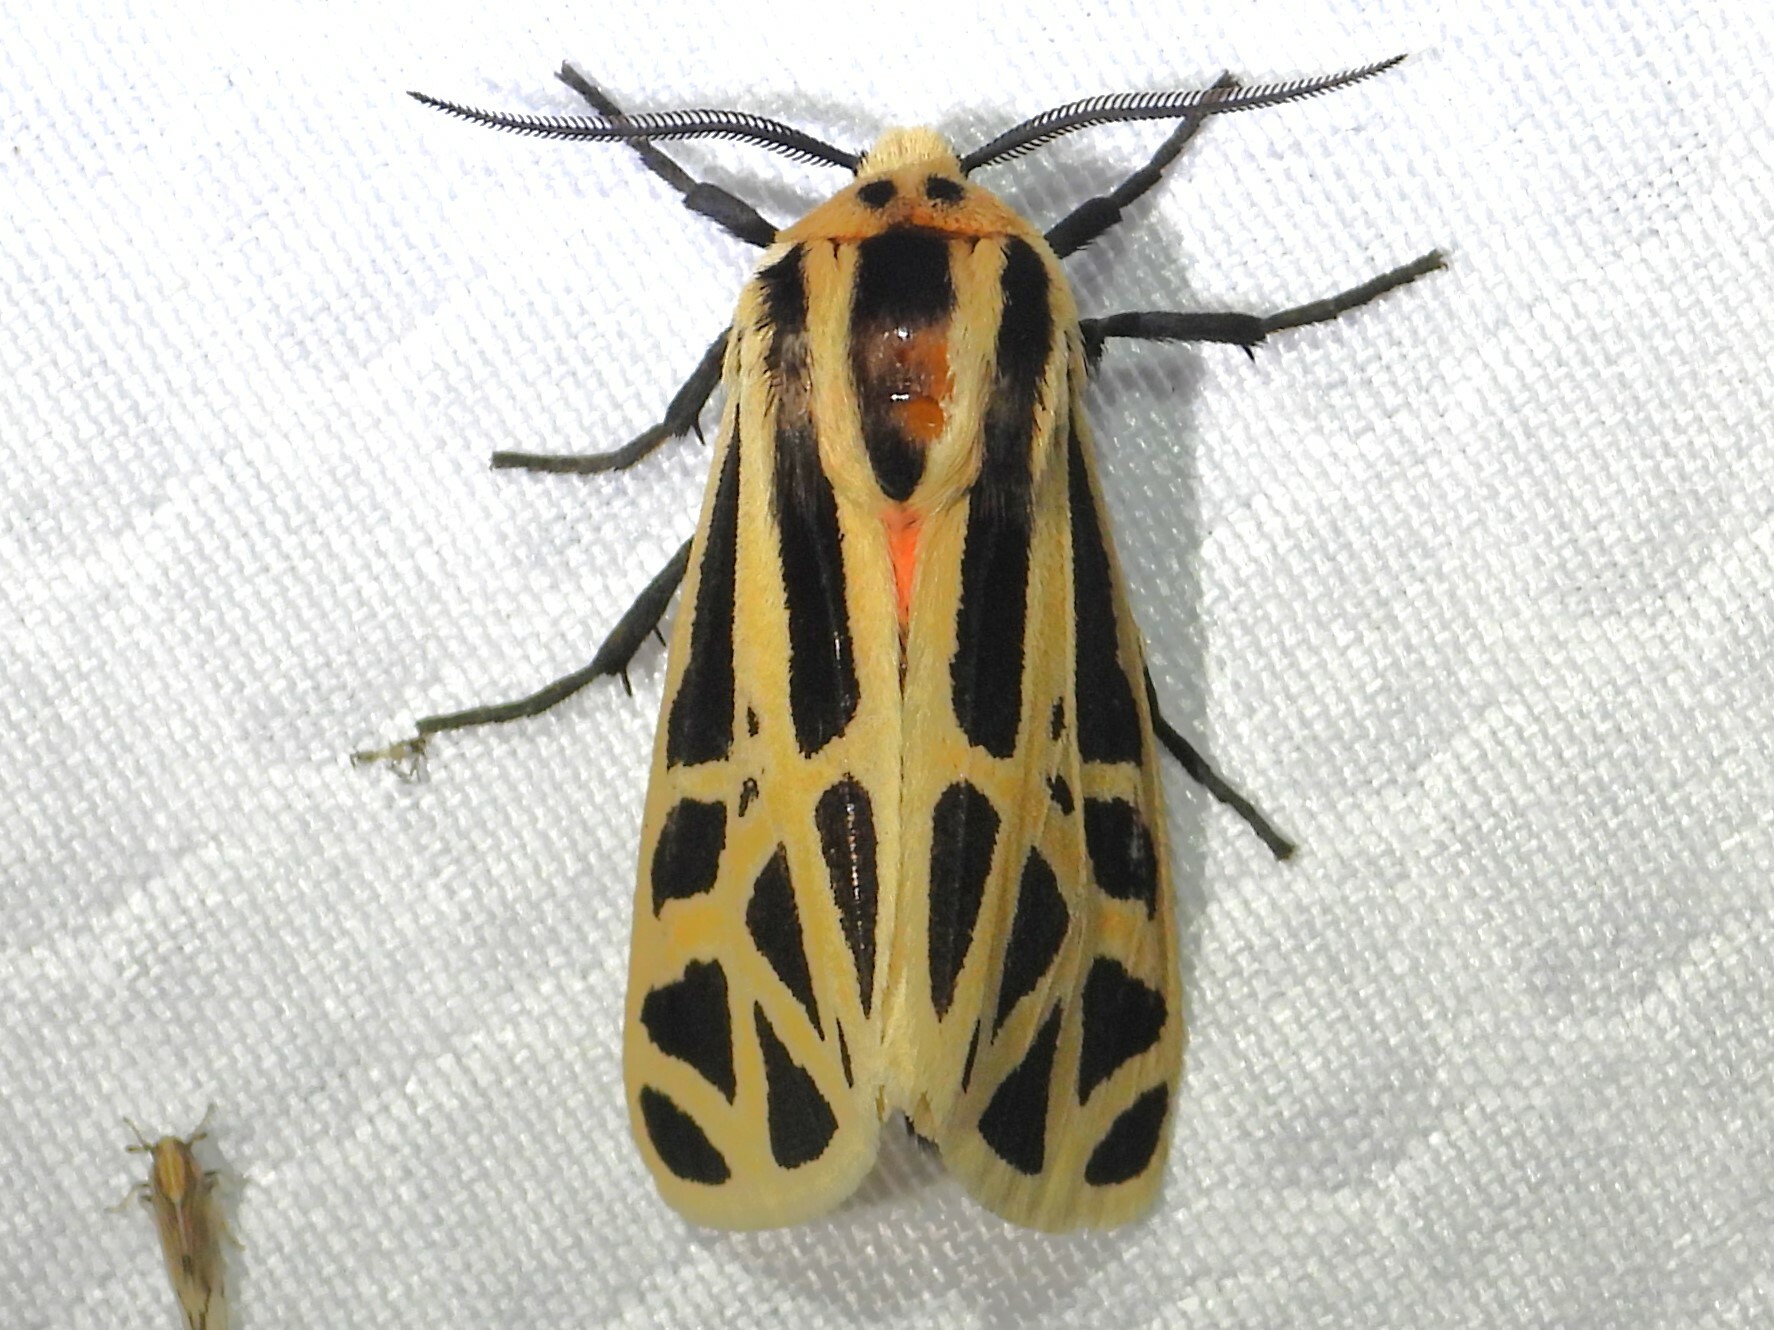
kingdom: Animalia
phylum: Arthropoda
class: Insecta
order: Lepidoptera
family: Erebidae
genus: Apantesis
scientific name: Apantesis
